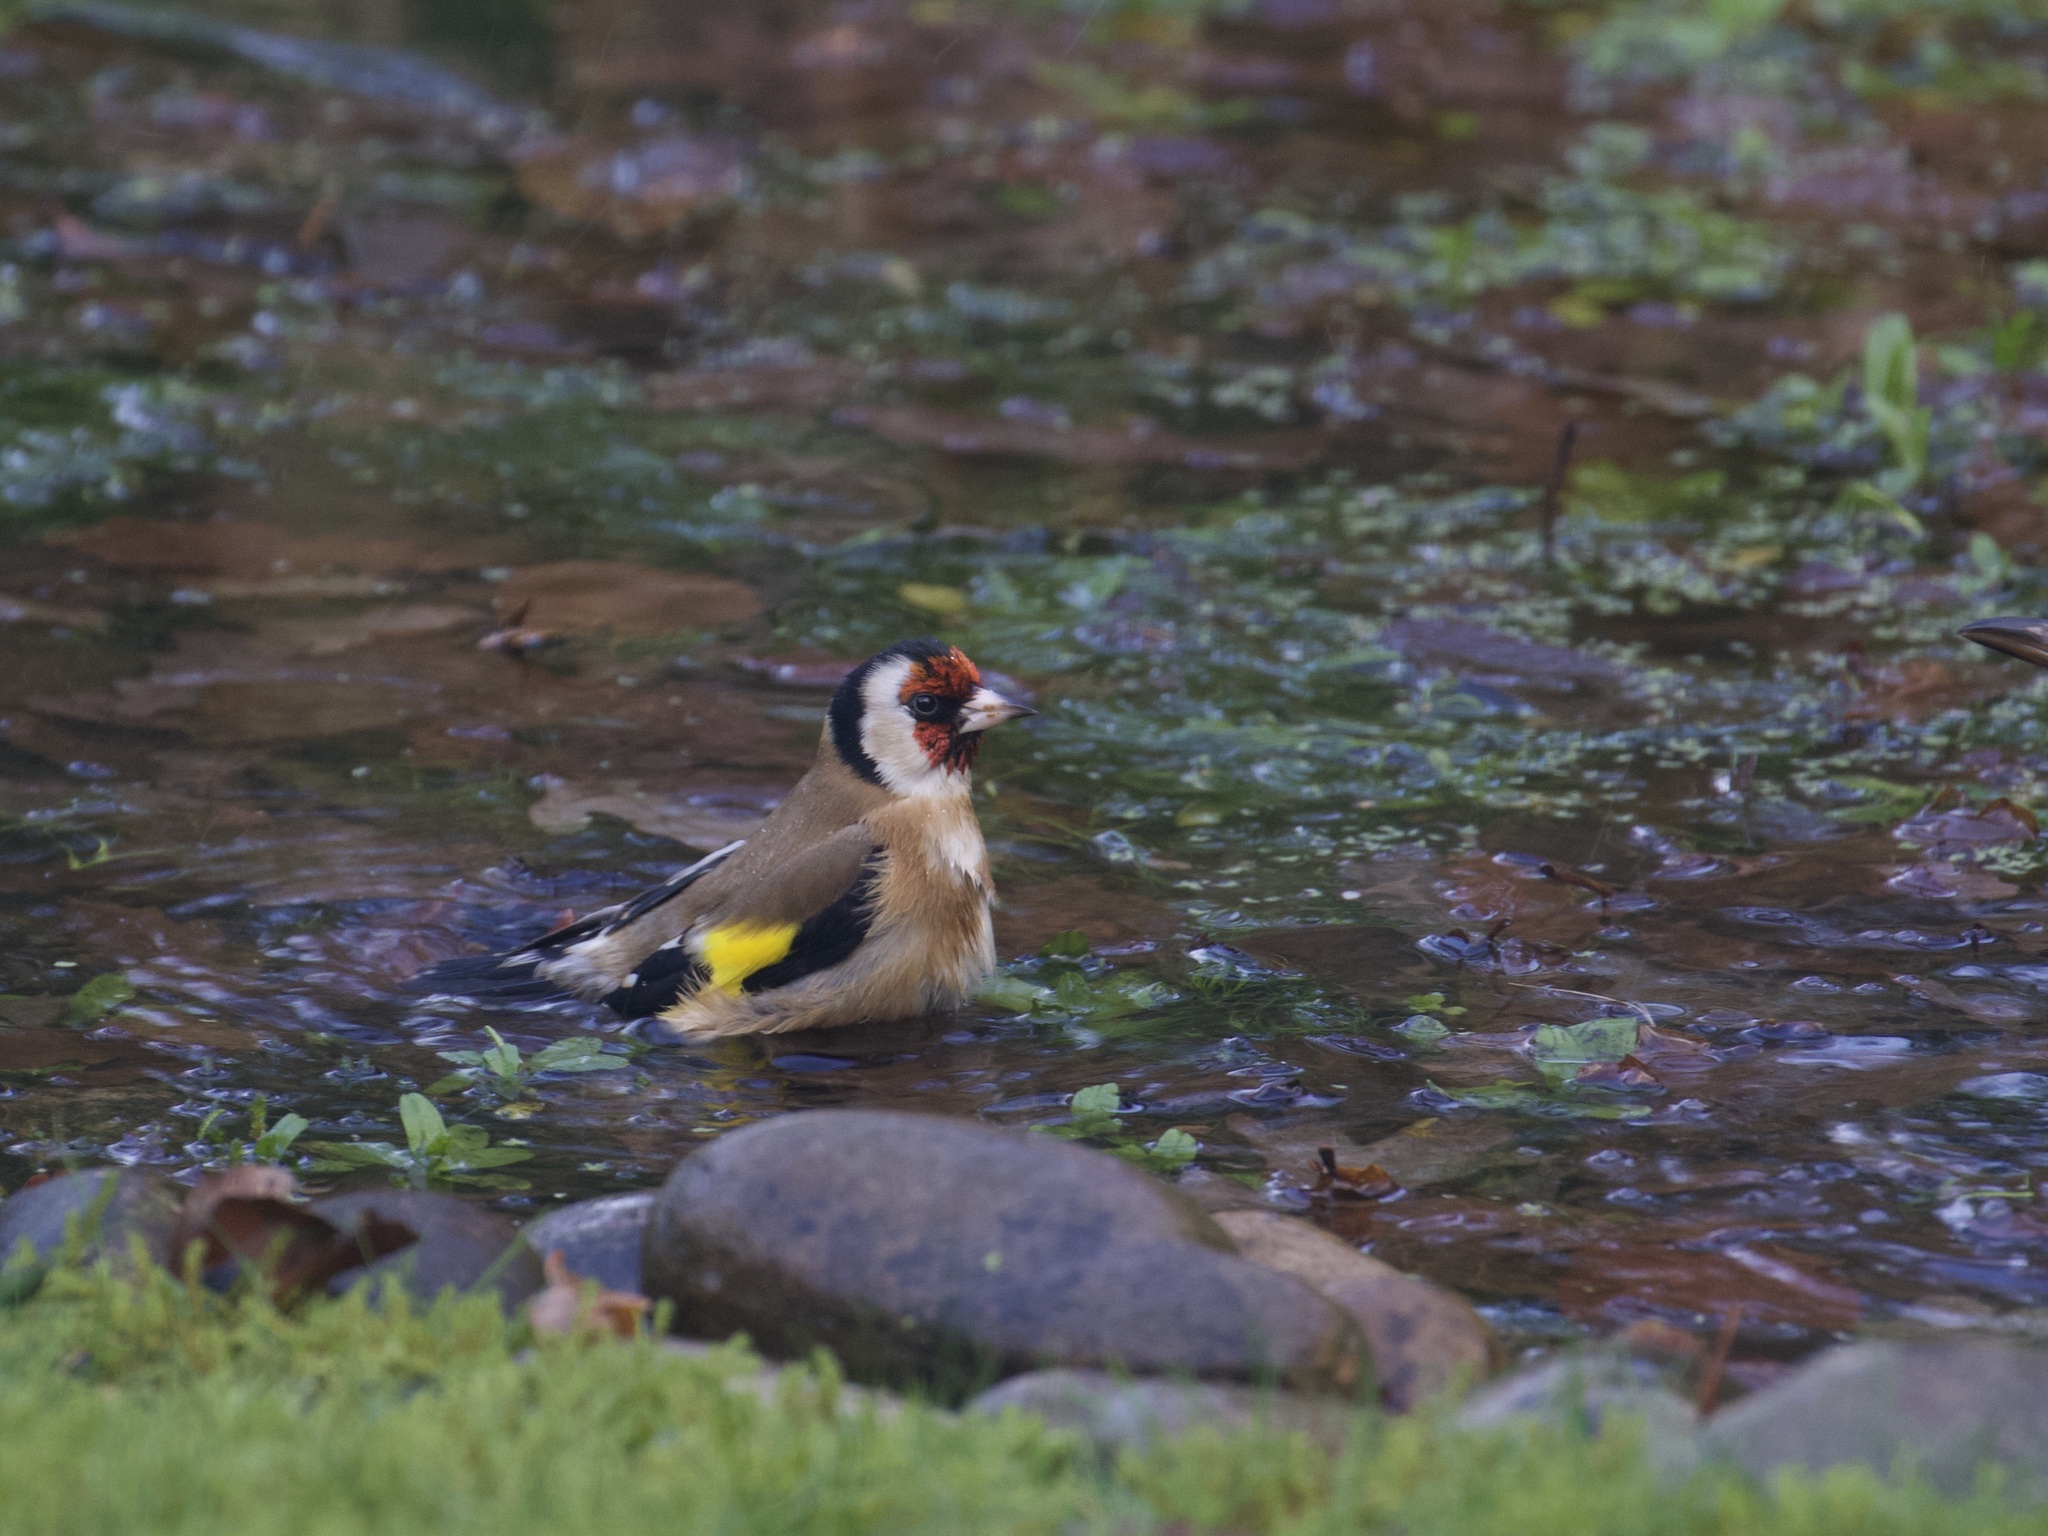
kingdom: Animalia
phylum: Chordata
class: Aves
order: Passeriformes
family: Fringillidae
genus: Carduelis
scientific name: Carduelis carduelis
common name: European goldfinch
